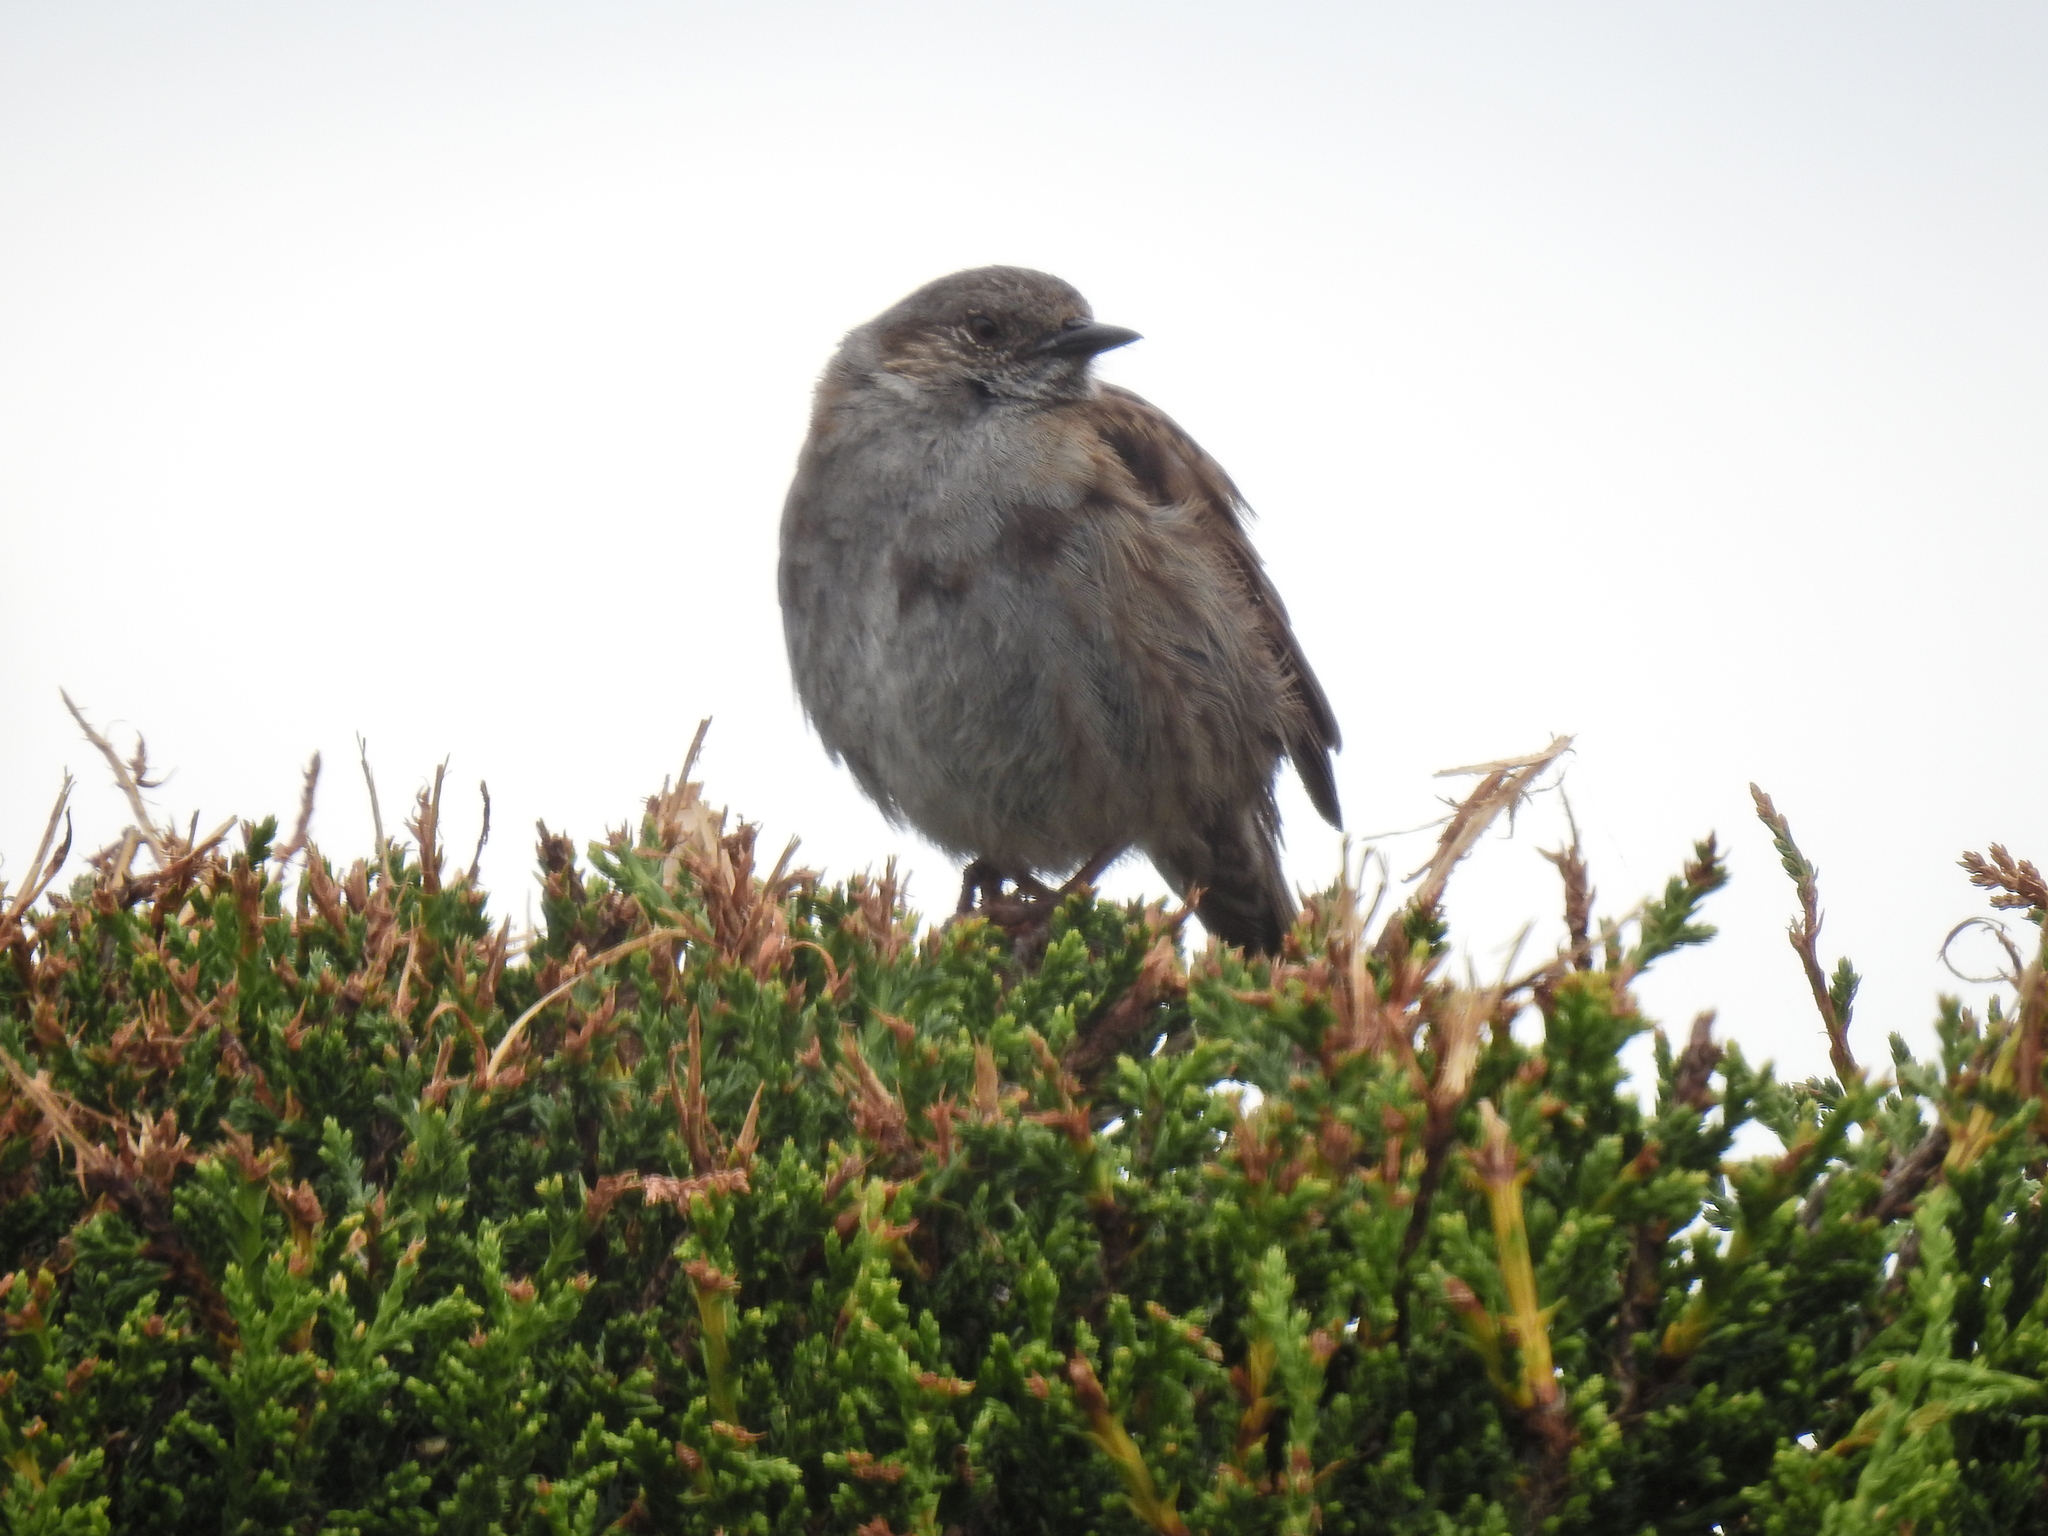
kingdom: Animalia
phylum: Chordata
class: Aves
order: Passeriformes
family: Prunellidae
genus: Prunella
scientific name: Prunella modularis
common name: Dunnock
